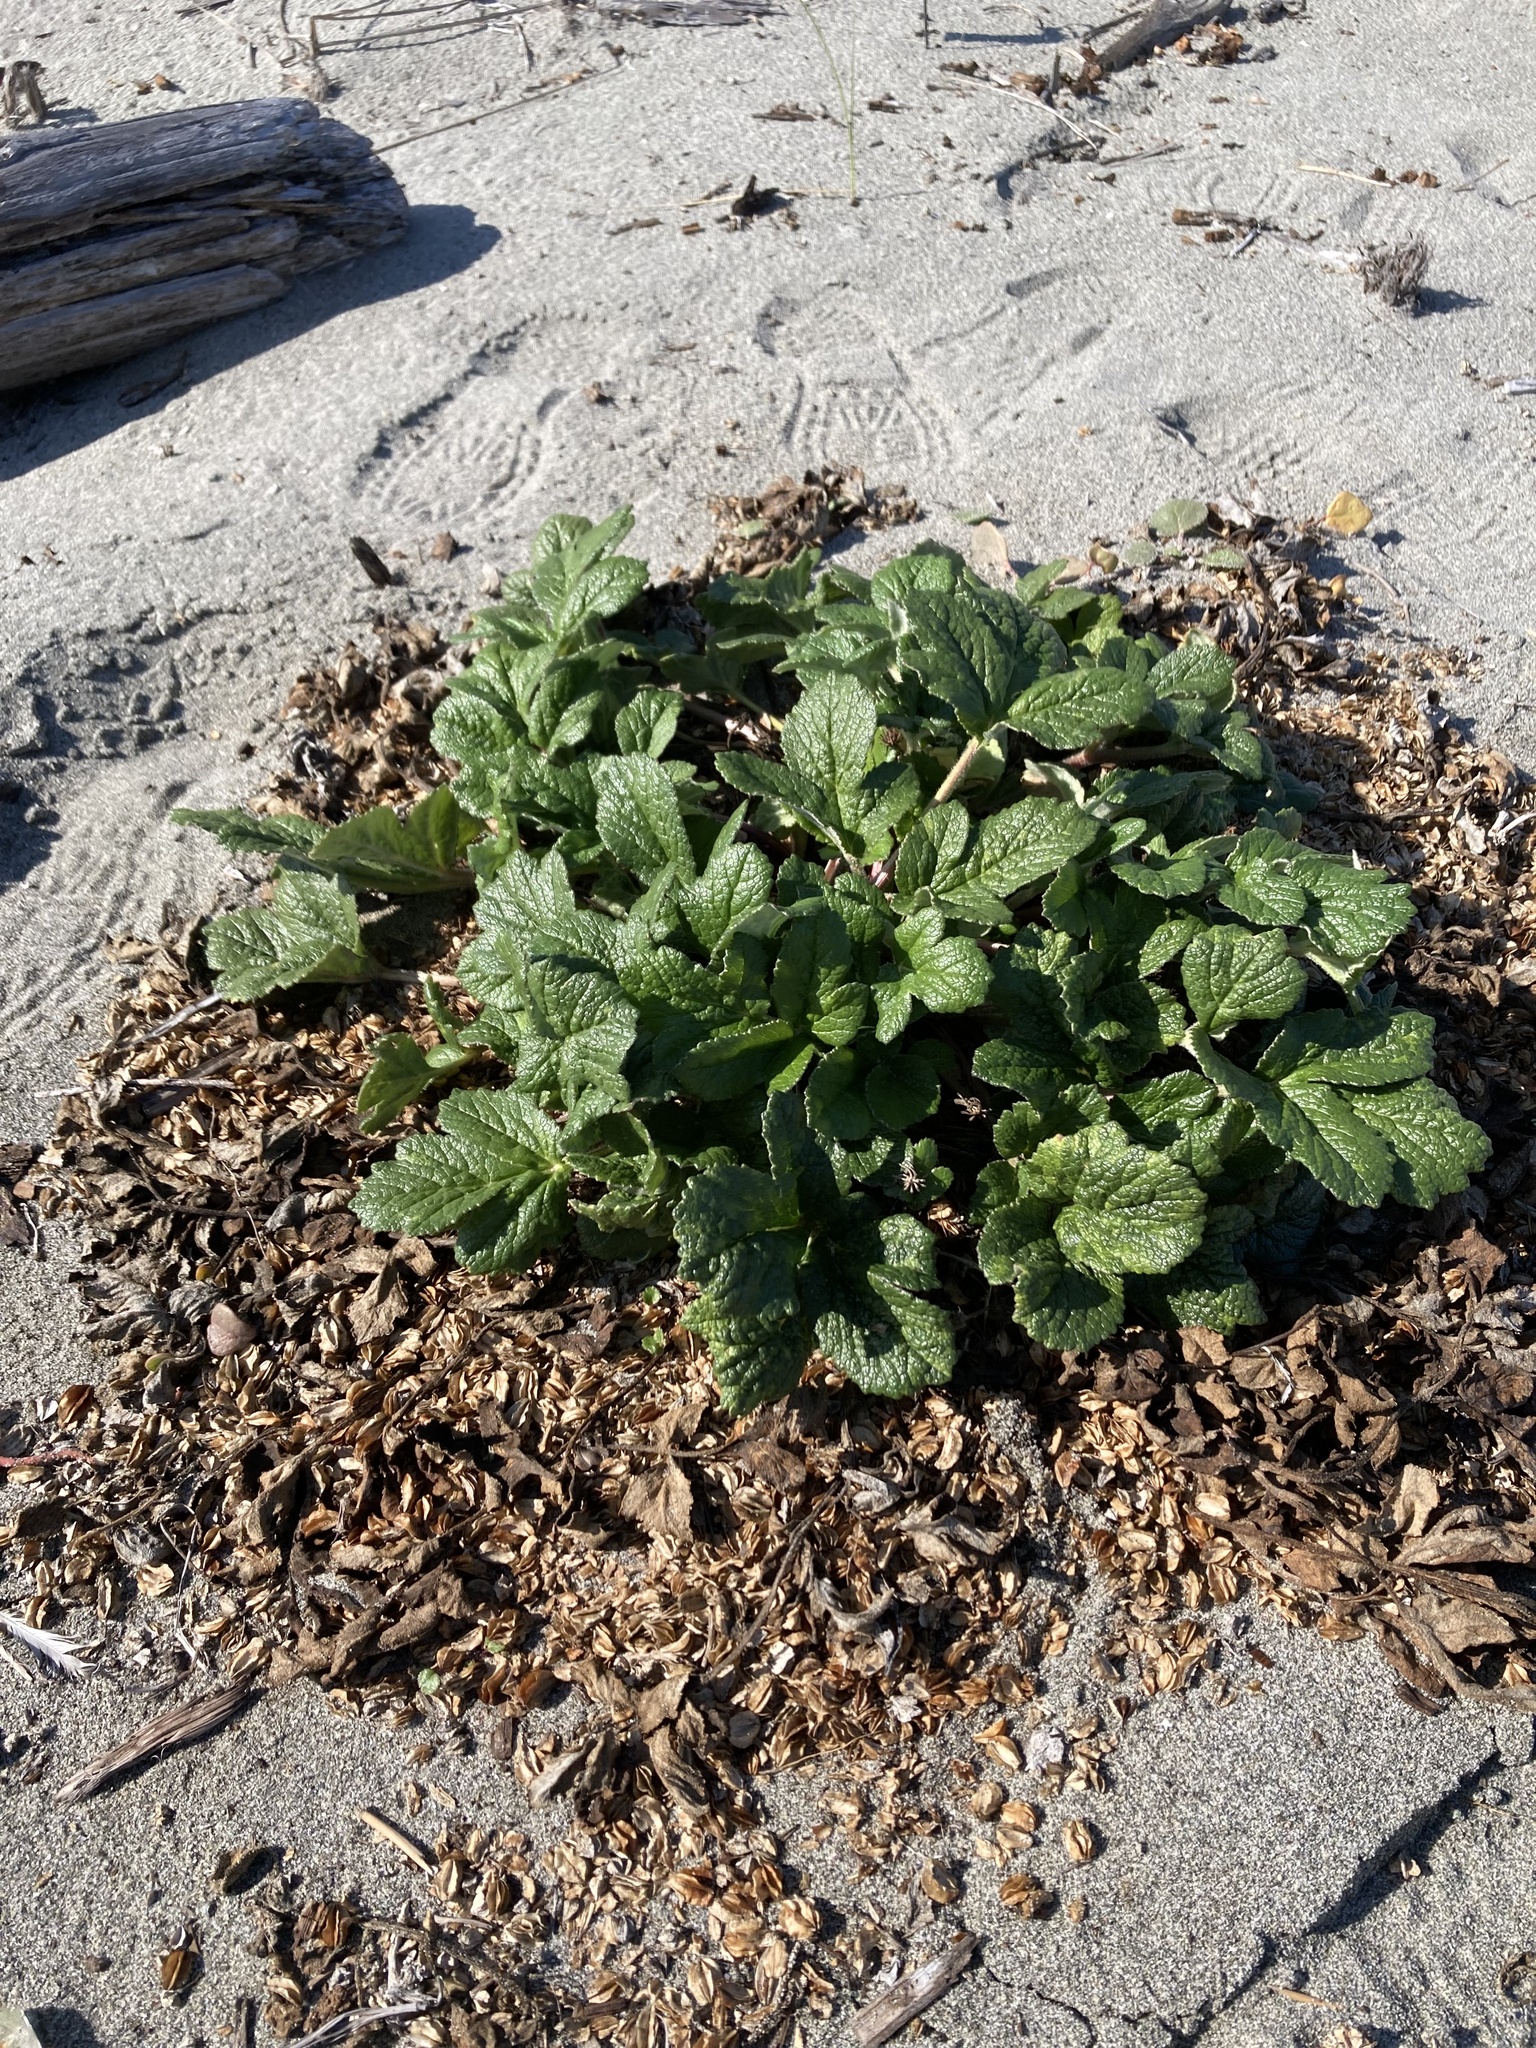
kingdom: Plantae
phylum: Tracheophyta
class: Magnoliopsida
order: Apiales
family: Apiaceae
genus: Angelica
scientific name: Angelica leiocarpa
